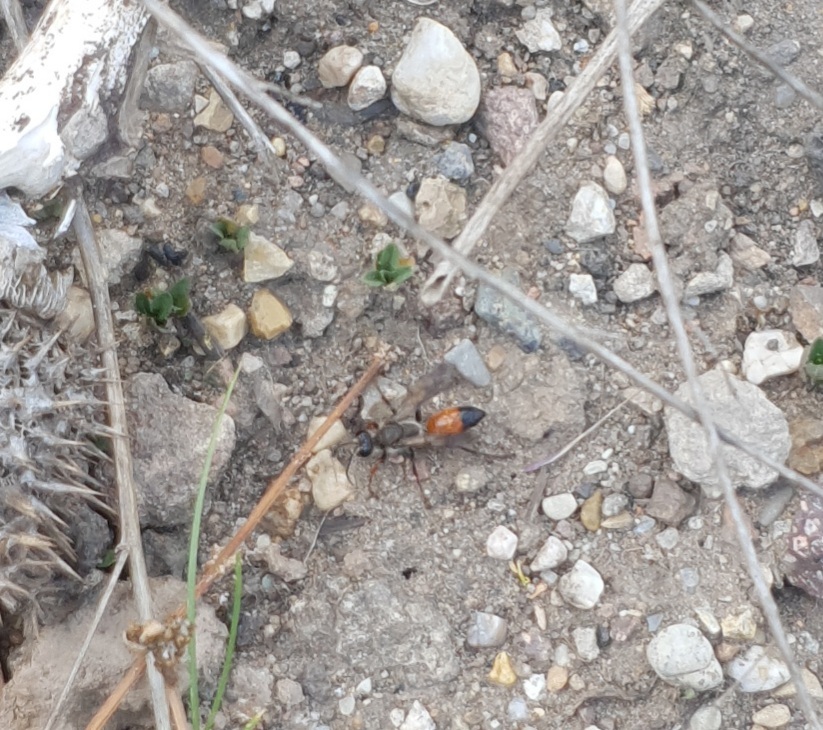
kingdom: Animalia
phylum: Arthropoda
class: Insecta
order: Hymenoptera
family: Sphecidae
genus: Sphex
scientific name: Sphex funerarius
